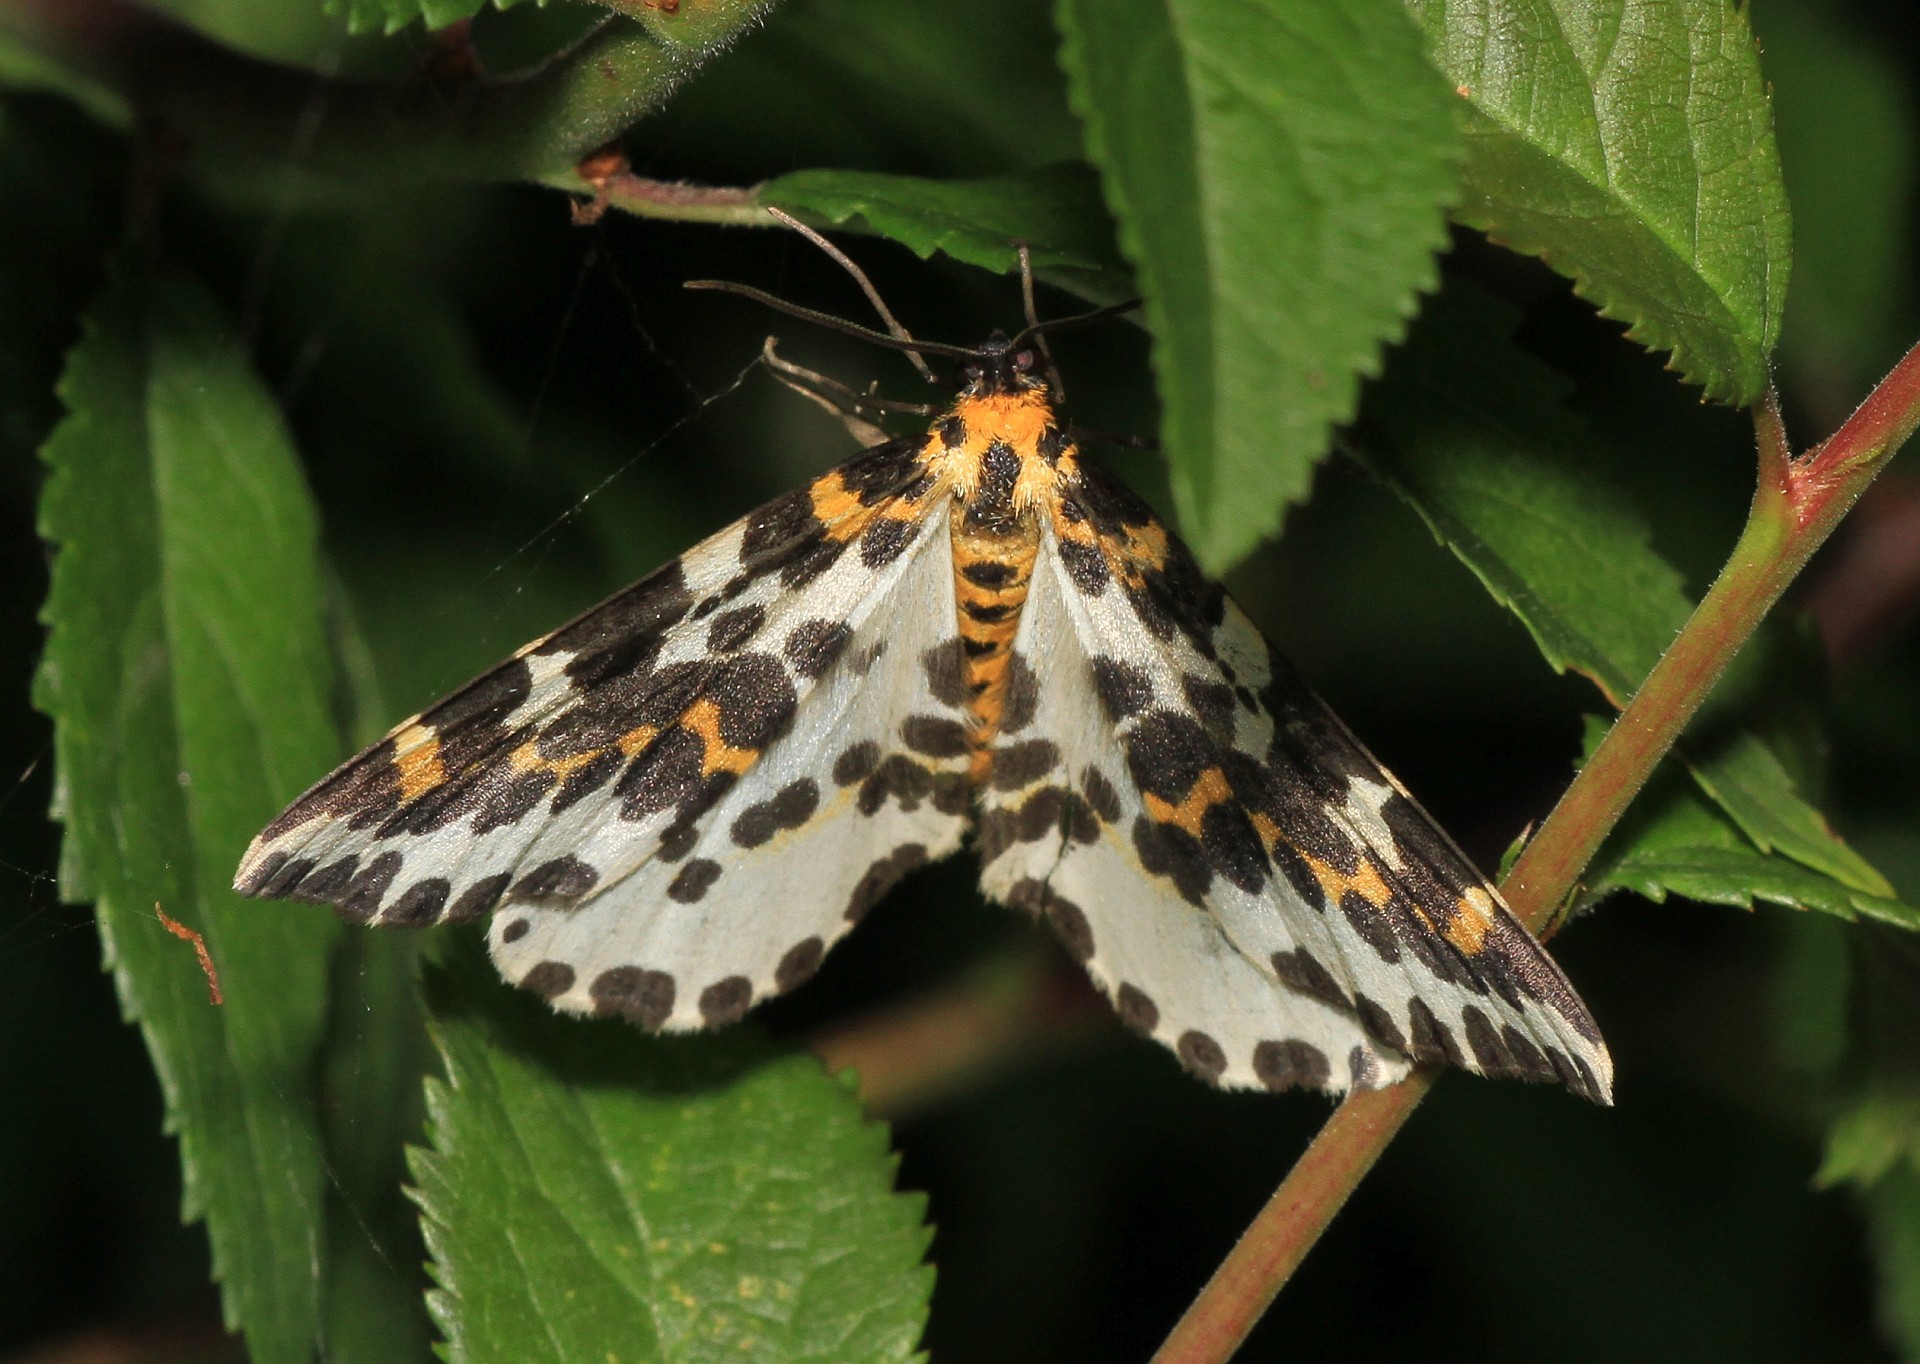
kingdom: Animalia
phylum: Arthropoda
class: Insecta
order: Lepidoptera
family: Geometridae
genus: Abraxas
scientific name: Abraxas grossulariata
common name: Magpie
